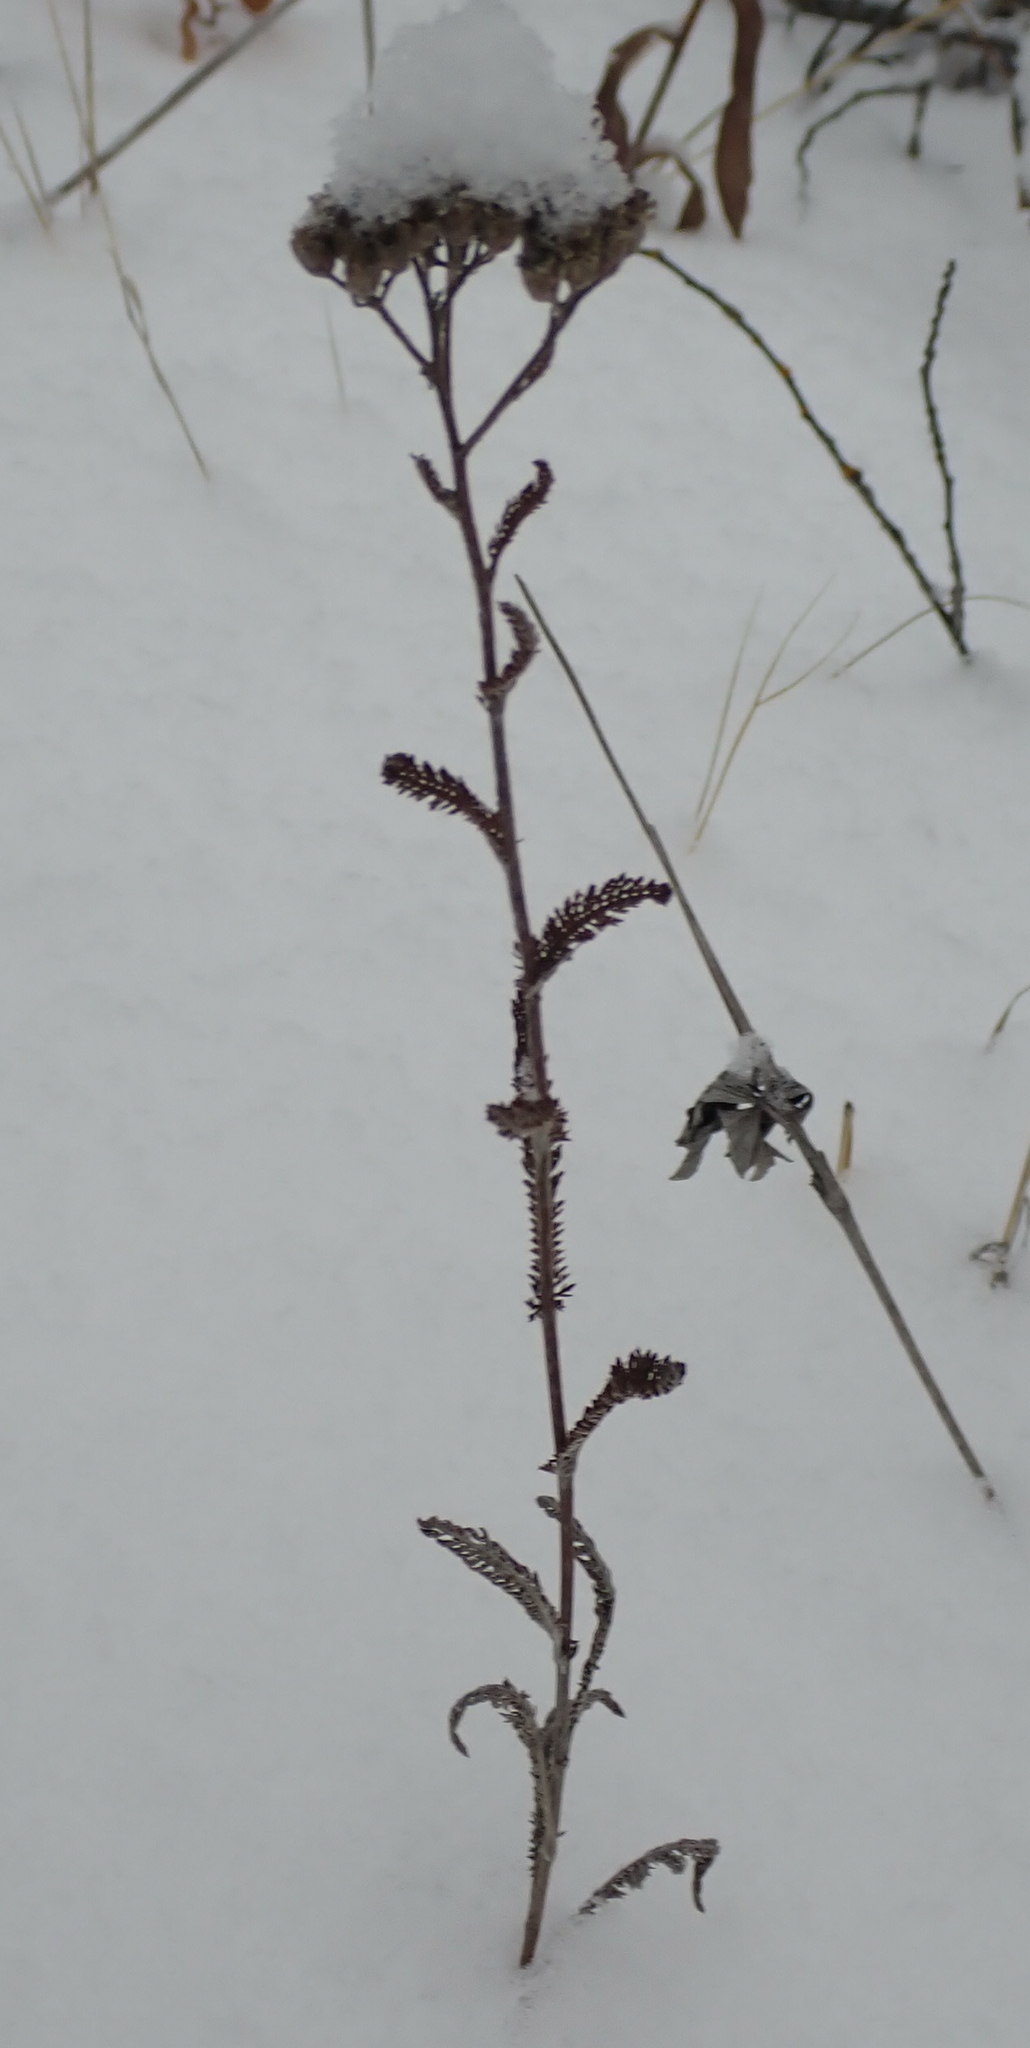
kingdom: Plantae
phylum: Tracheophyta
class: Magnoliopsida
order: Asterales
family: Asteraceae
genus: Achillea
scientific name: Achillea millefolium
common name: Yarrow
